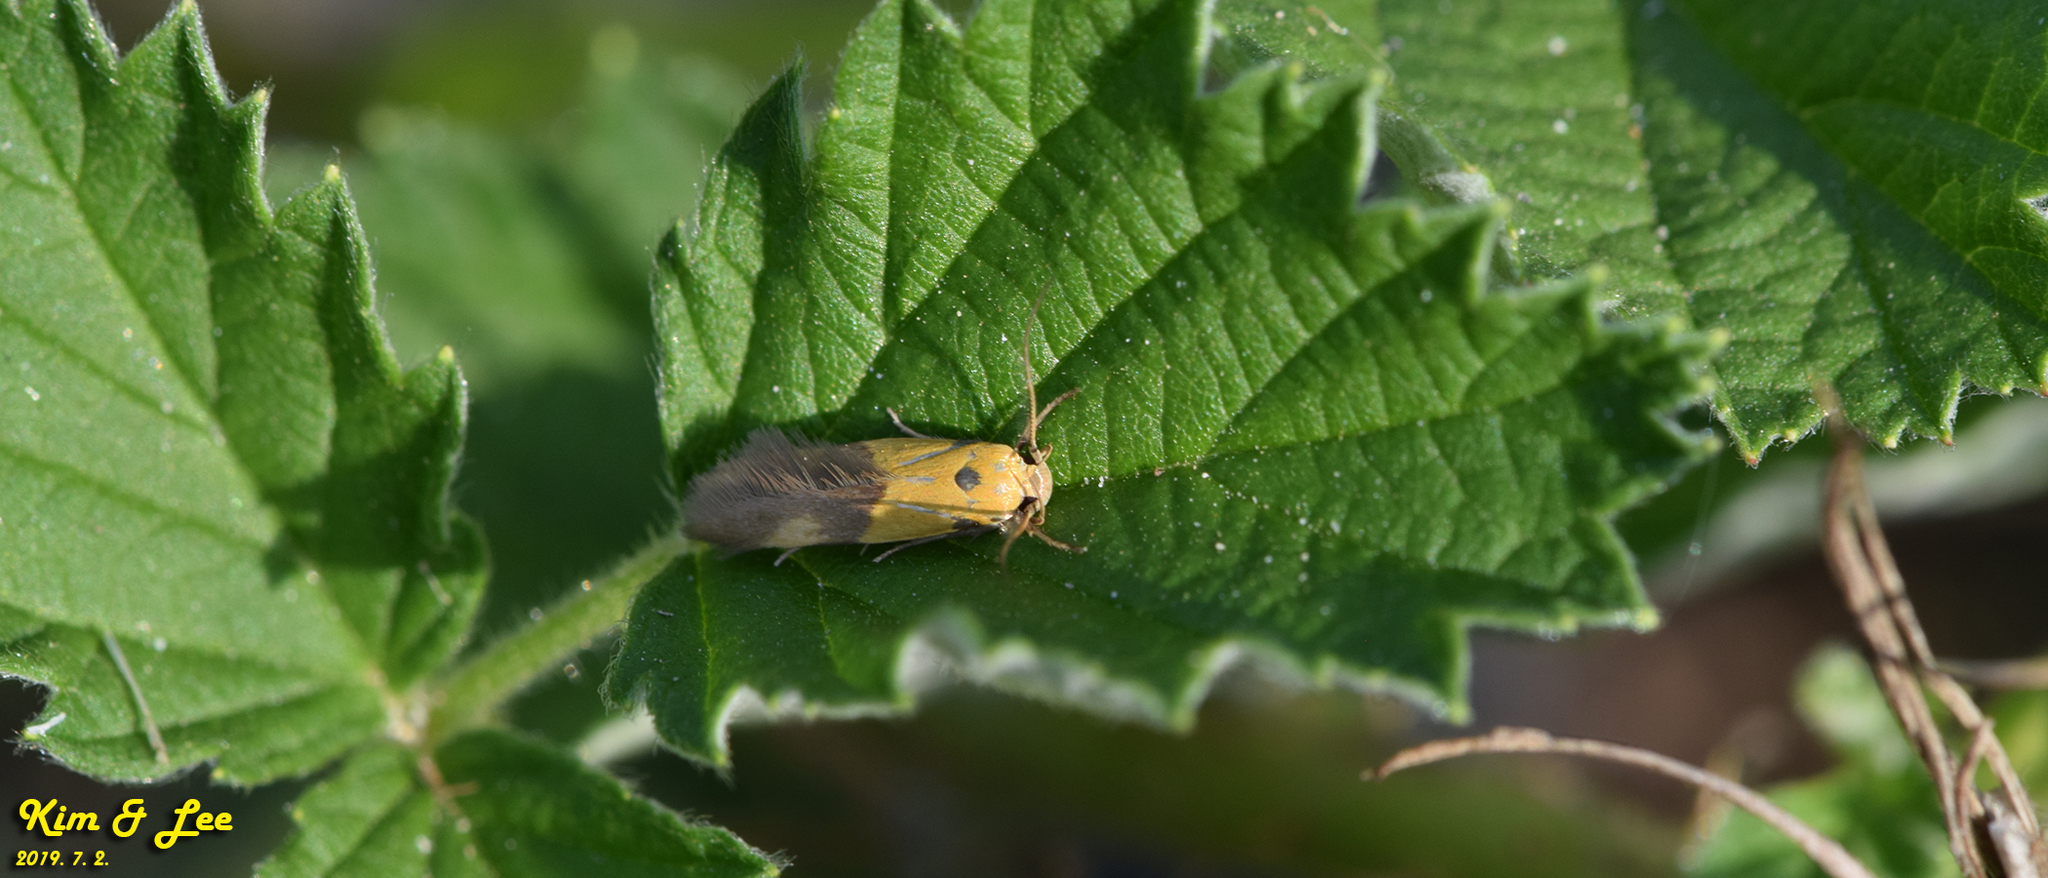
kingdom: Animalia
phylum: Arthropoda
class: Insecta
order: Lepidoptera
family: Stathmopodidae
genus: Stathmopoda
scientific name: Stathmopoda auriferella
